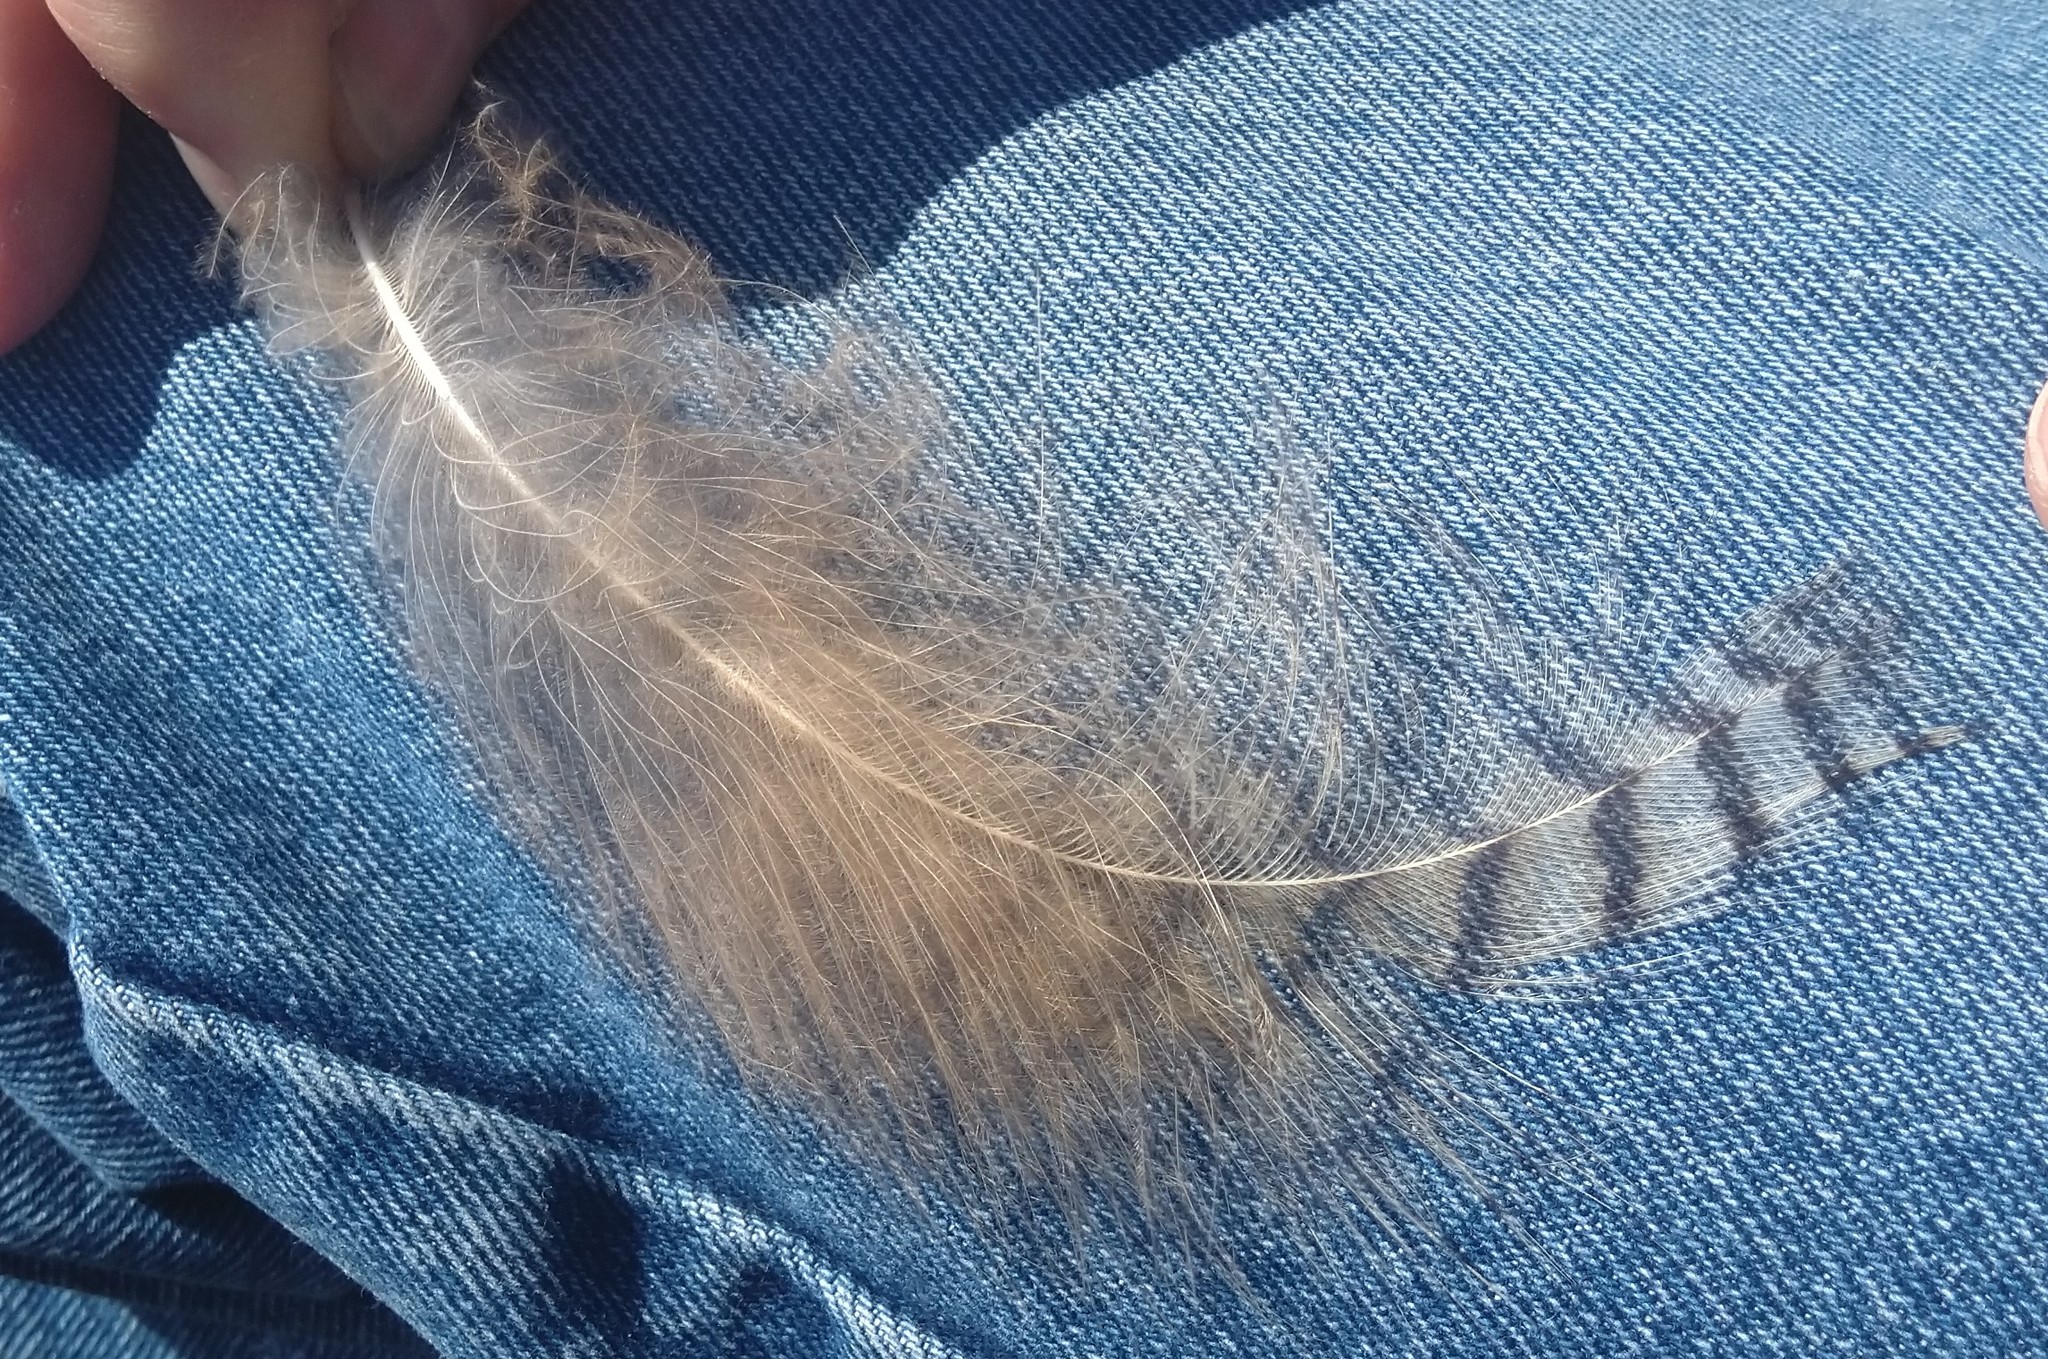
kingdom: Animalia
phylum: Chordata
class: Aves
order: Strigiformes
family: Strigidae
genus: Bubo
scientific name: Bubo virginianus
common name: Great horned owl
